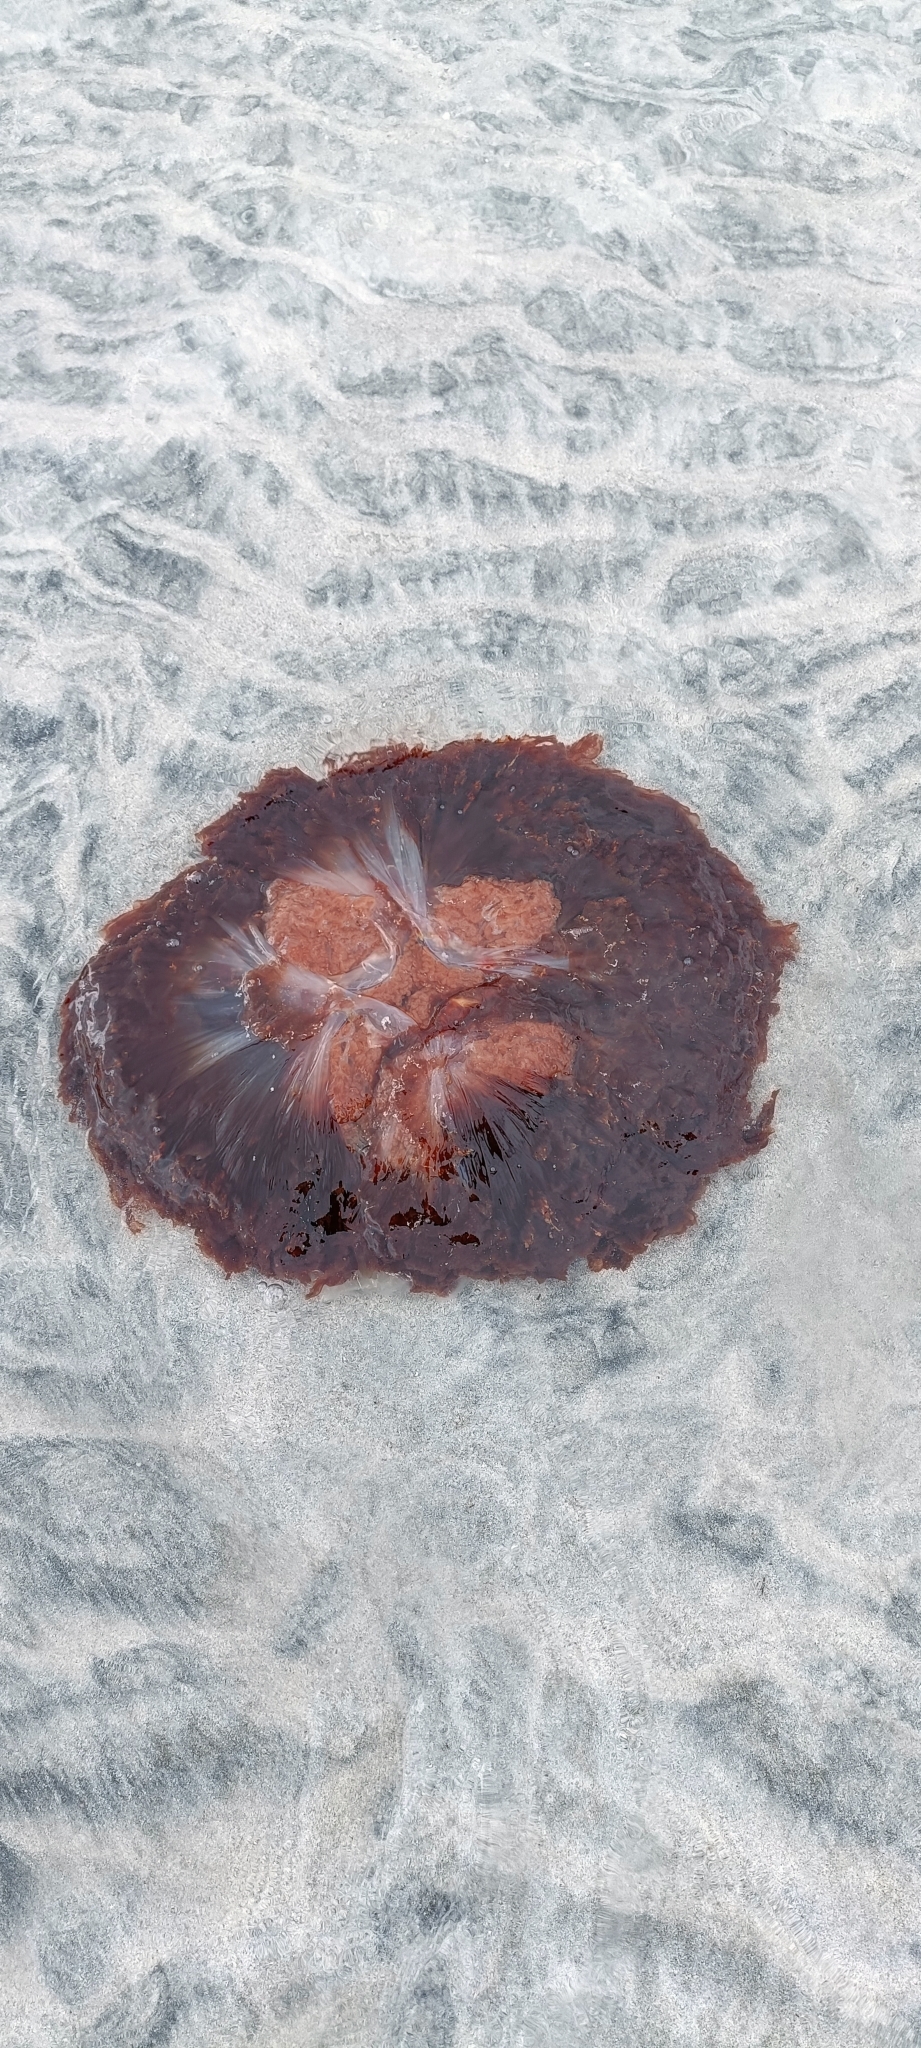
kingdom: Animalia
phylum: Cnidaria
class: Scyphozoa
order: Semaeostomeae
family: Cyaneidae
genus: Cyanea
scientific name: Cyanea capillata
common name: Lion's mane jellyfish
